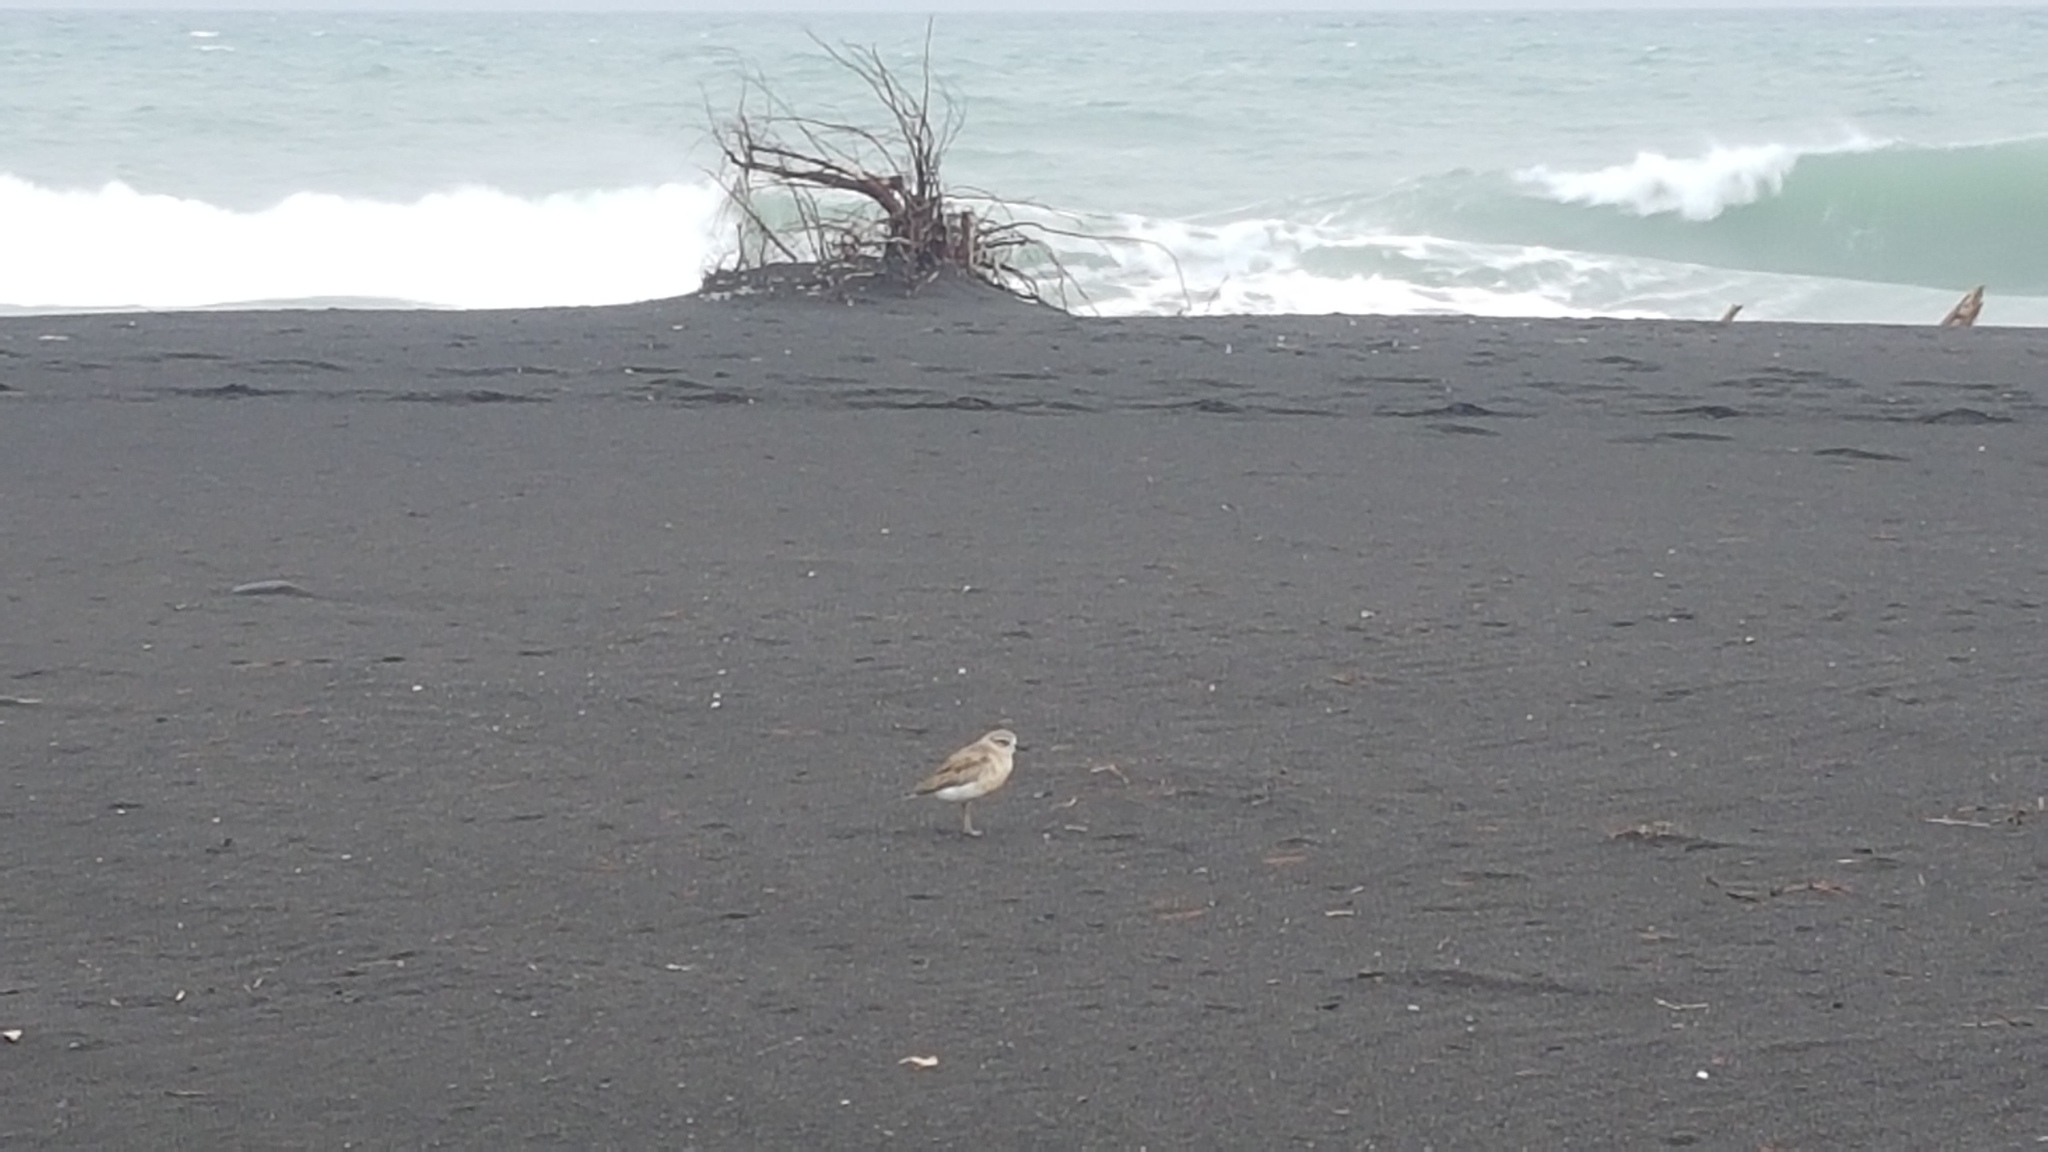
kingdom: Animalia
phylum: Chordata
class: Aves
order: Charadriiformes
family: Charadriidae
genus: Anarhynchus
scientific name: Anarhynchus
